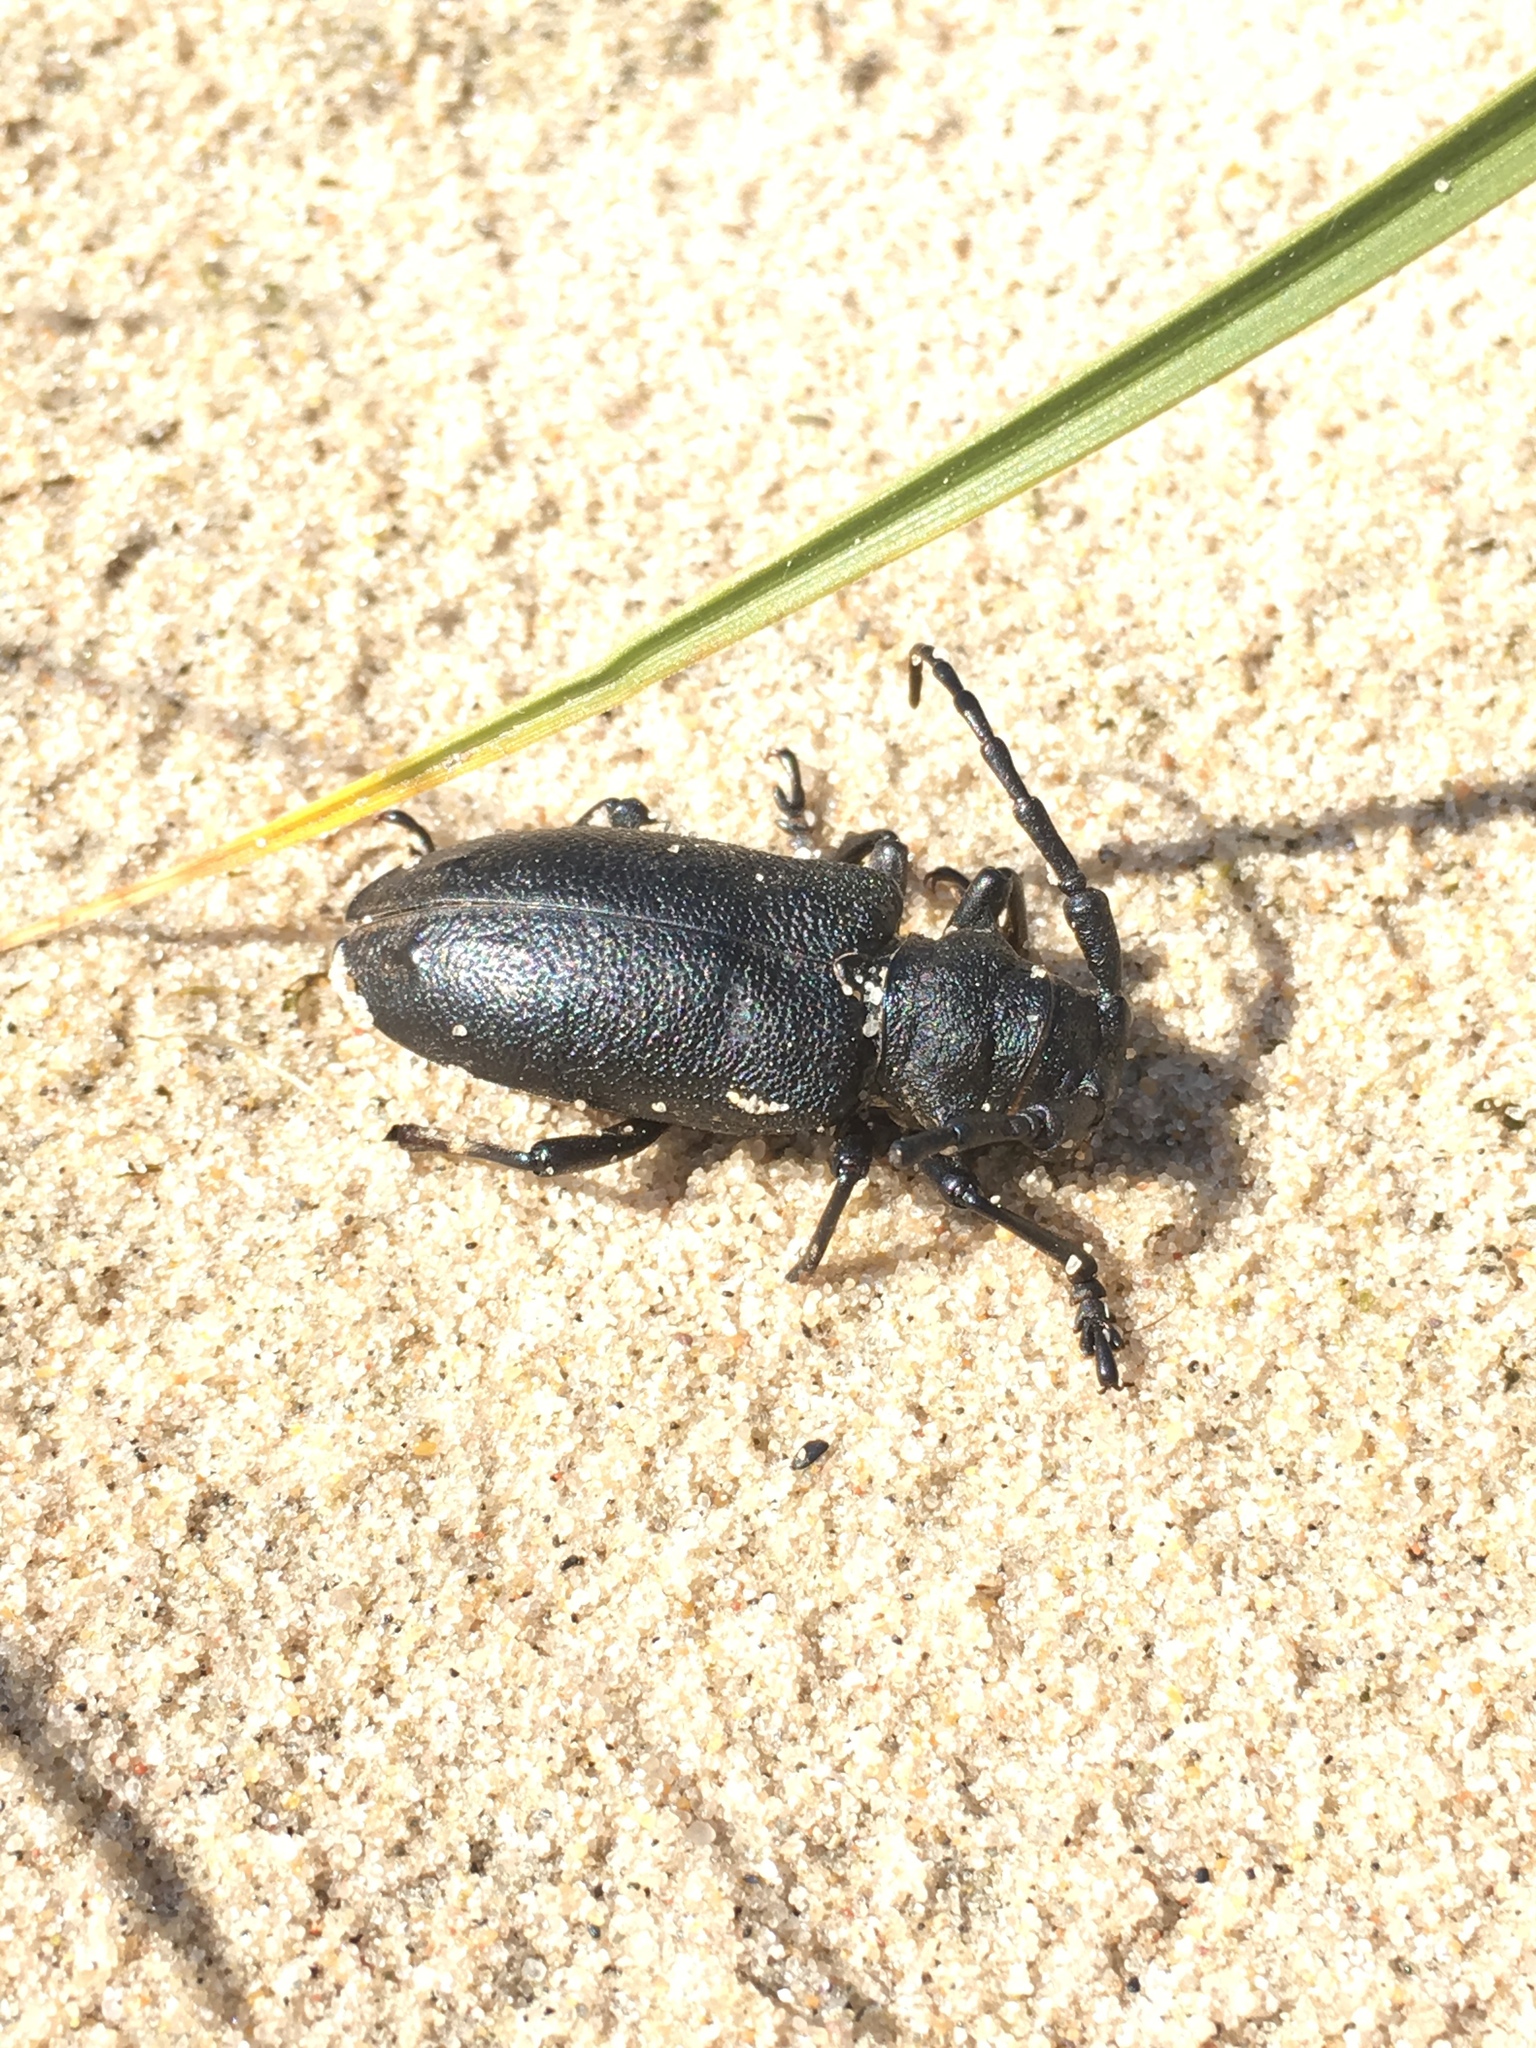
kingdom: Animalia
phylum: Arthropoda
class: Insecta
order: Coleoptera
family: Cerambycidae
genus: Lamia
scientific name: Lamia textor
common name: Weaver beetle
